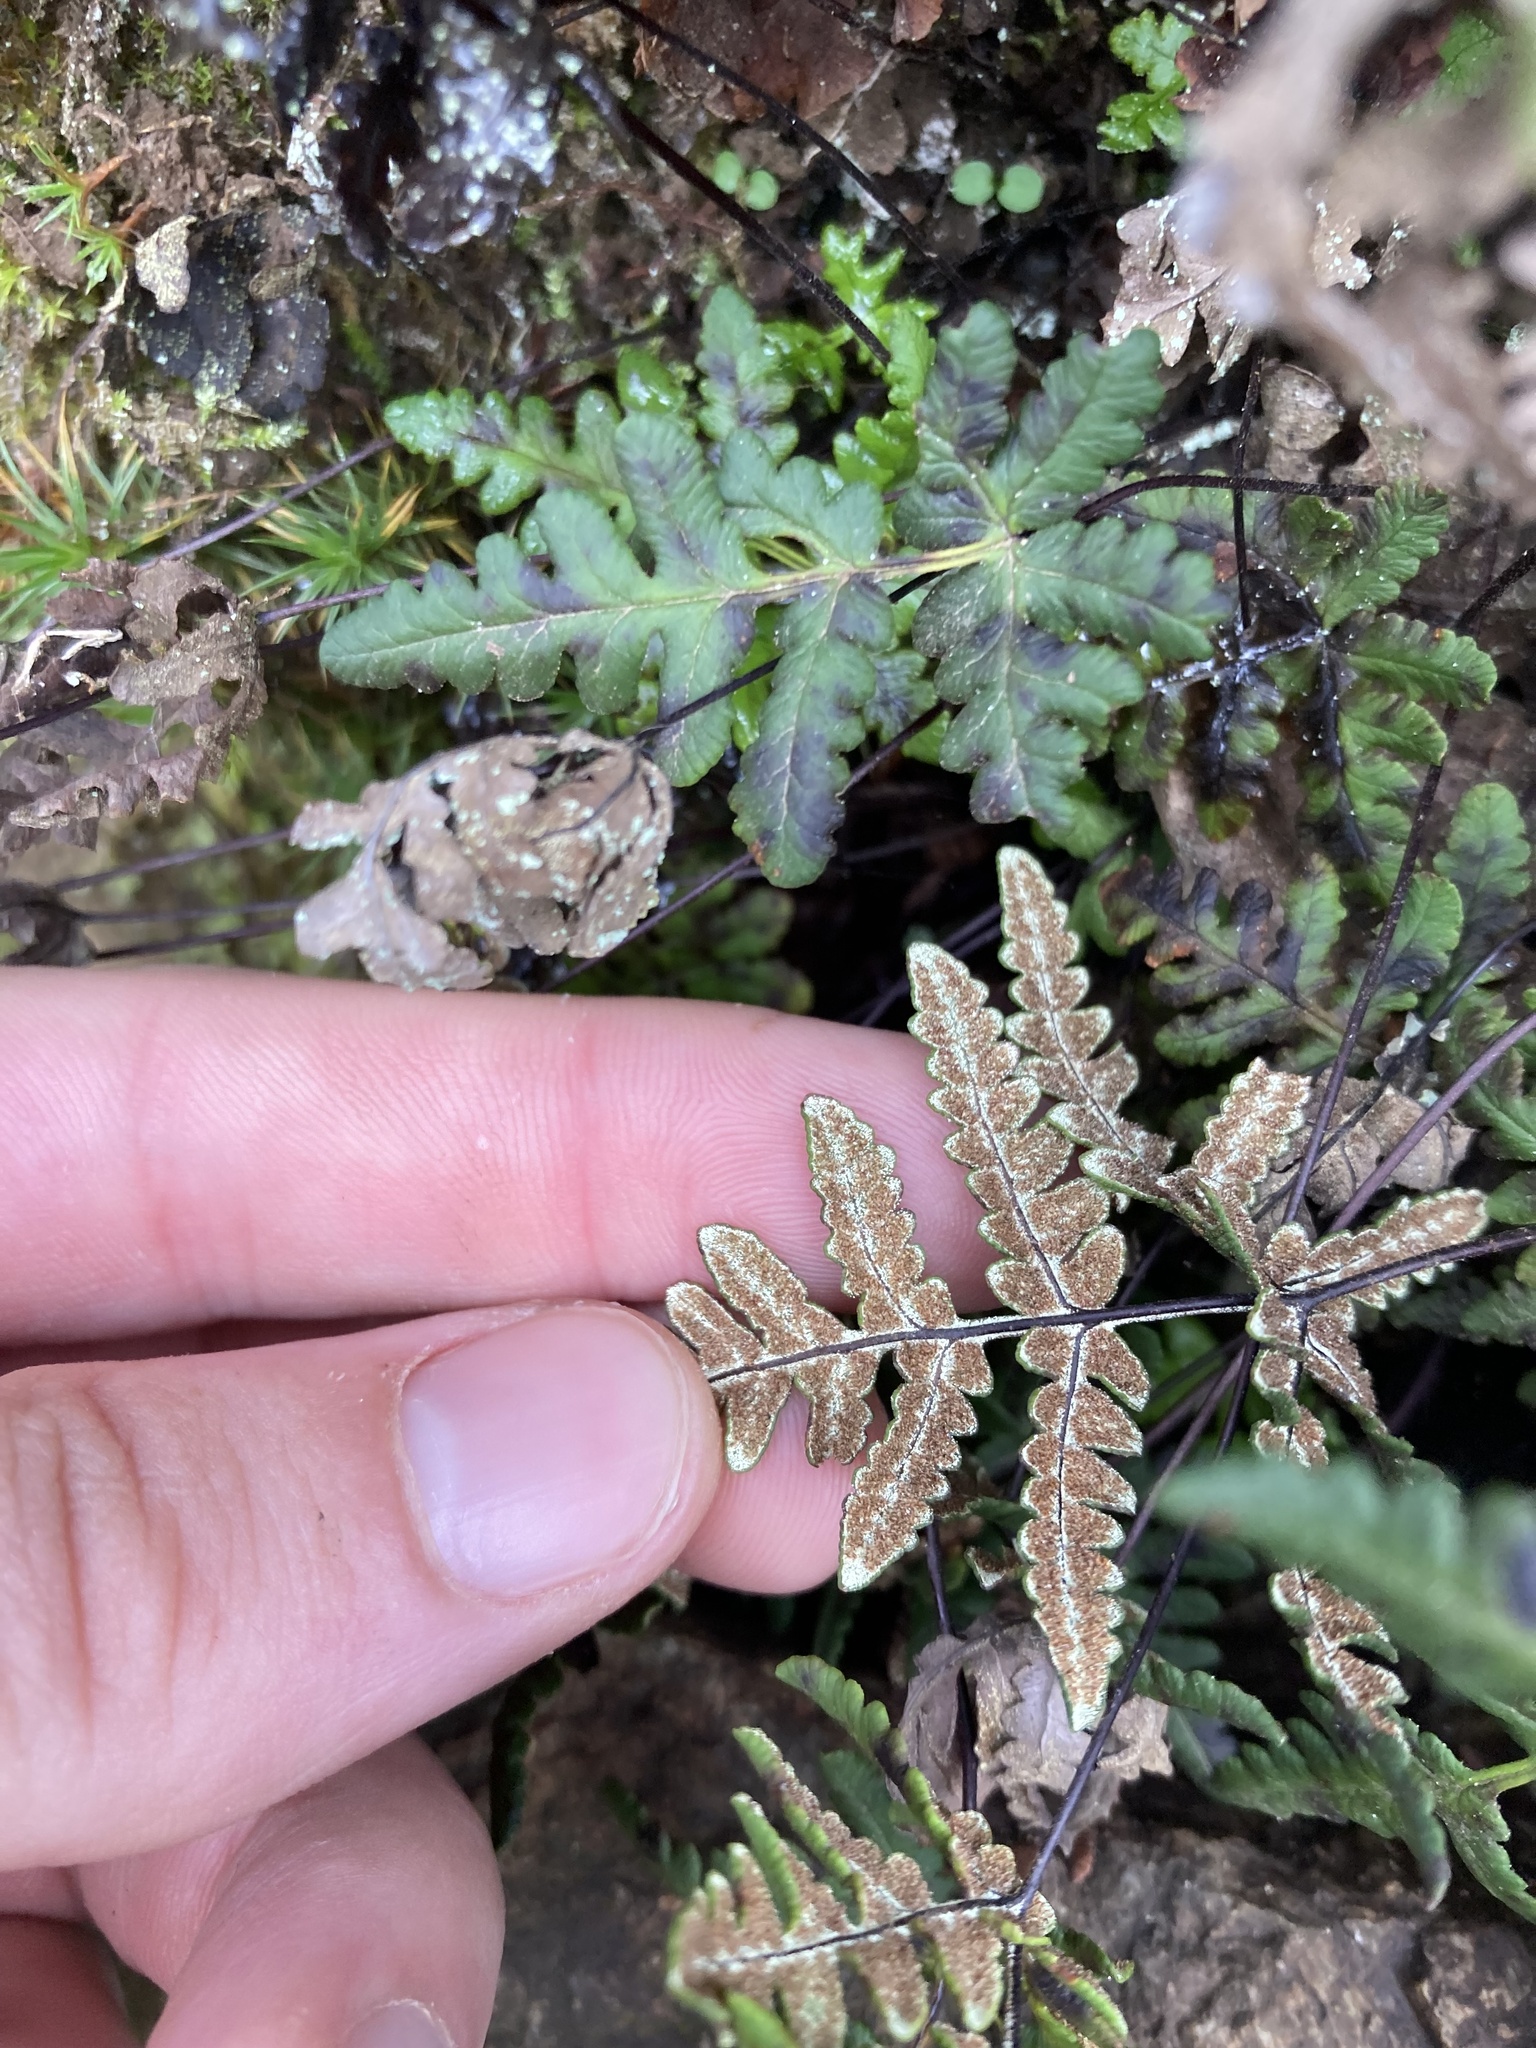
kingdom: Plantae
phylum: Tracheophyta
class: Polypodiopsida
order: Polypodiales
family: Pteridaceae
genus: Pentagramma
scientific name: Pentagramma triangularis
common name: Gold fern
